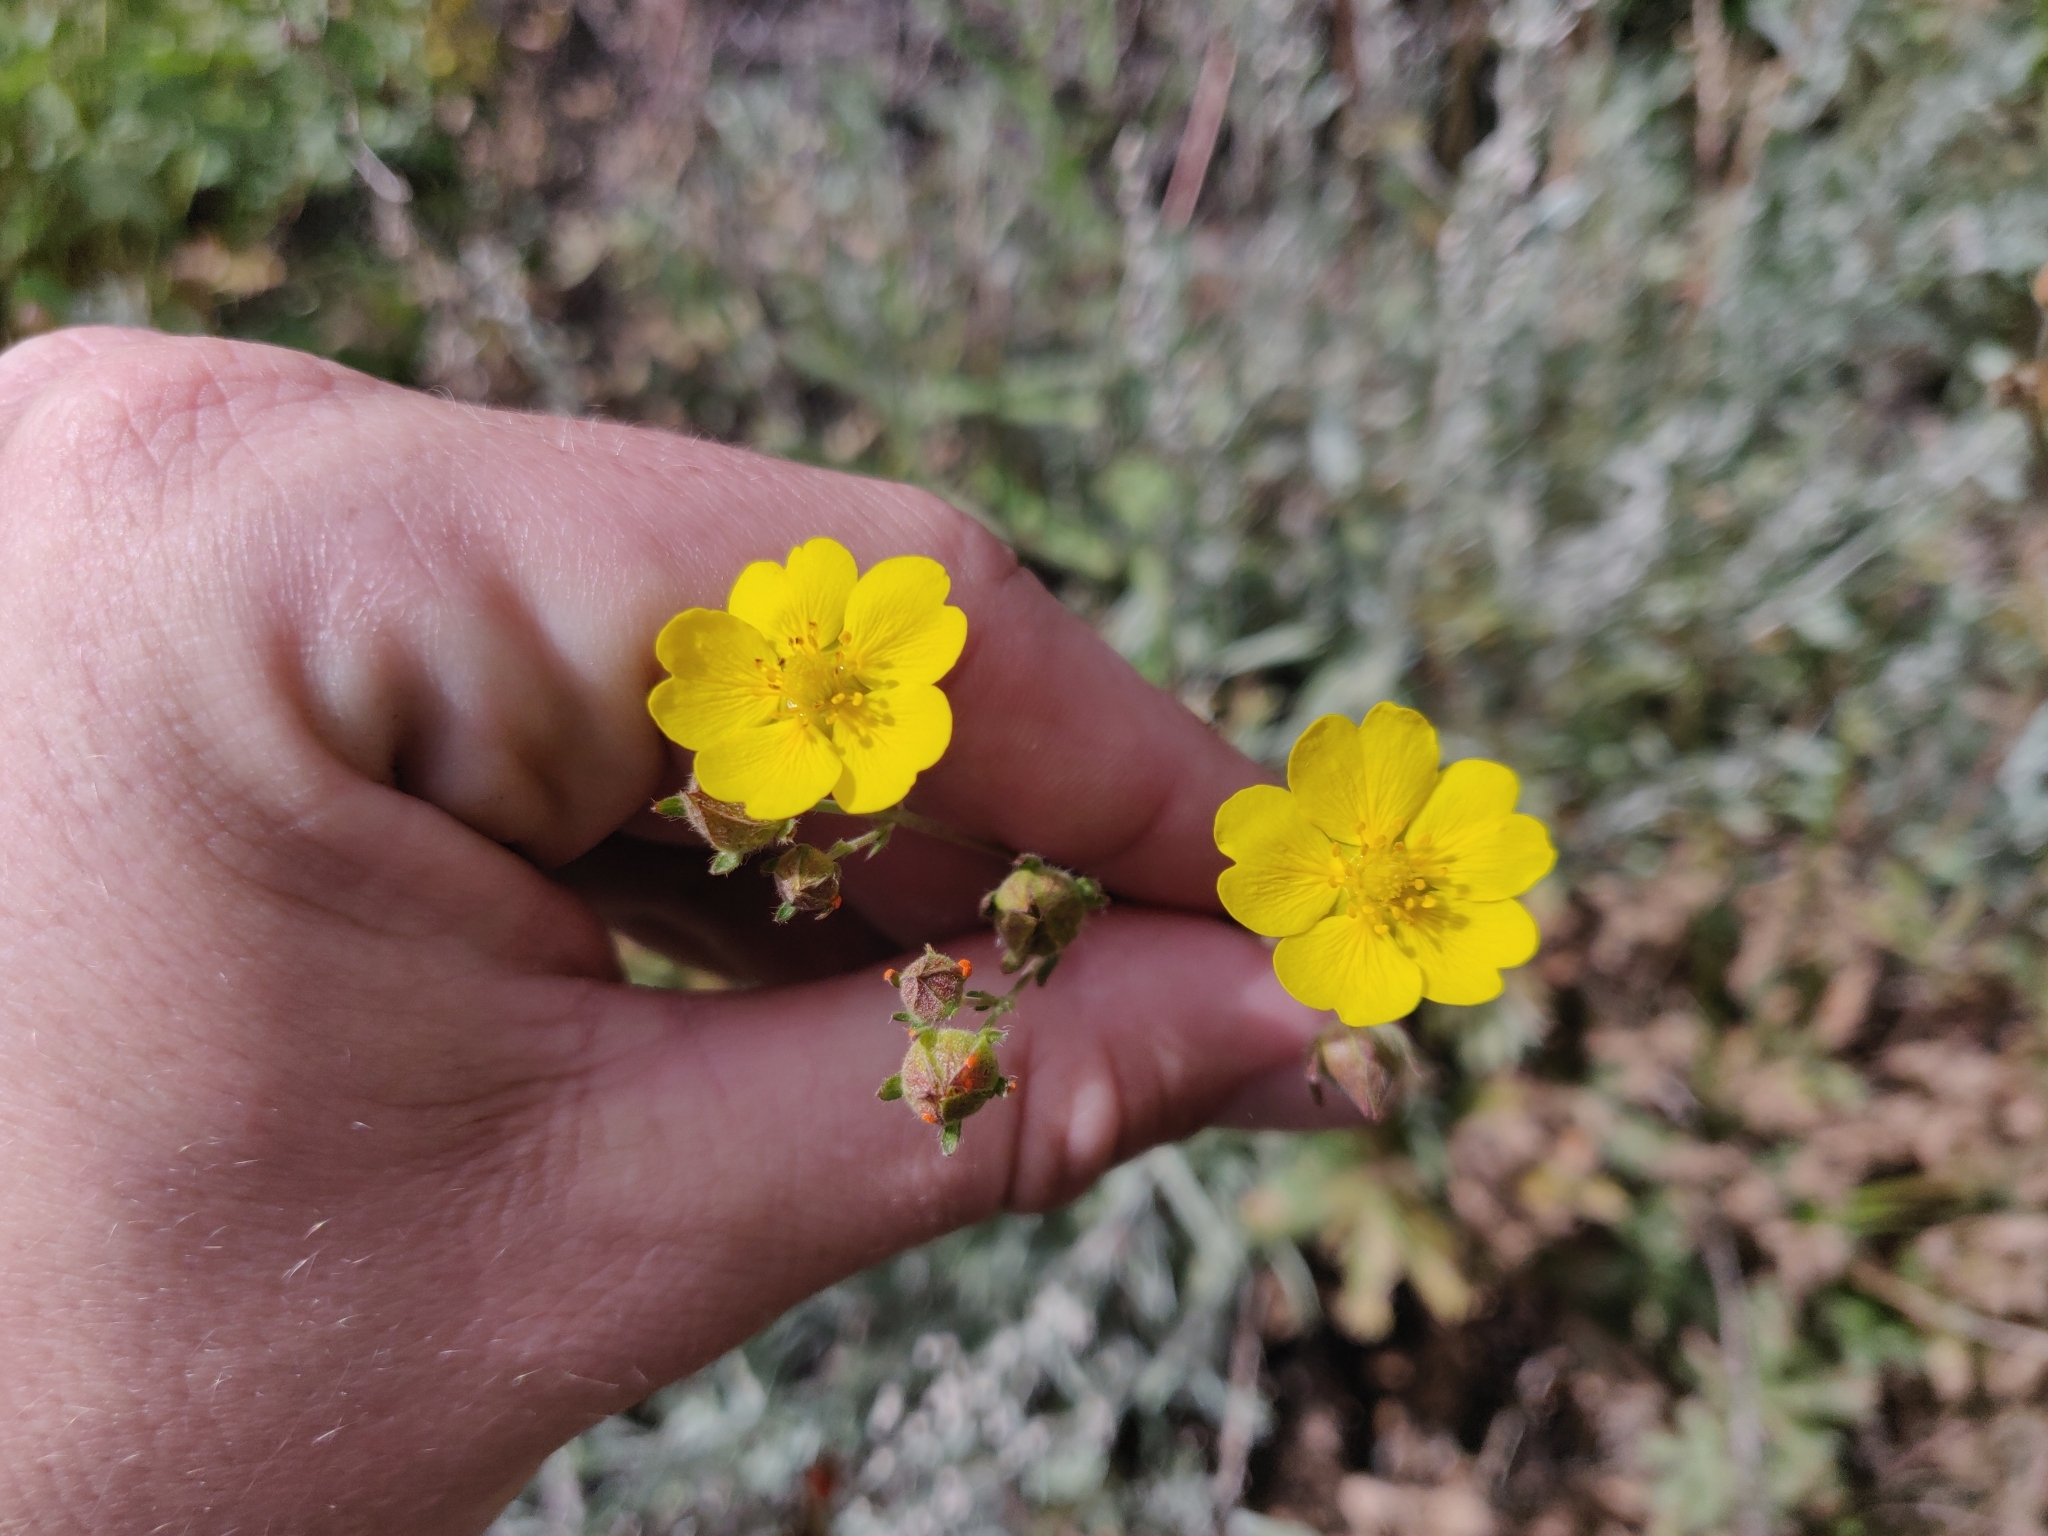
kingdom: Plantae
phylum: Tracheophyta
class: Magnoliopsida
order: Rosales
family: Rosaceae
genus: Potentilla
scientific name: Potentilla gracilis
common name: Graceful cinquefoil
